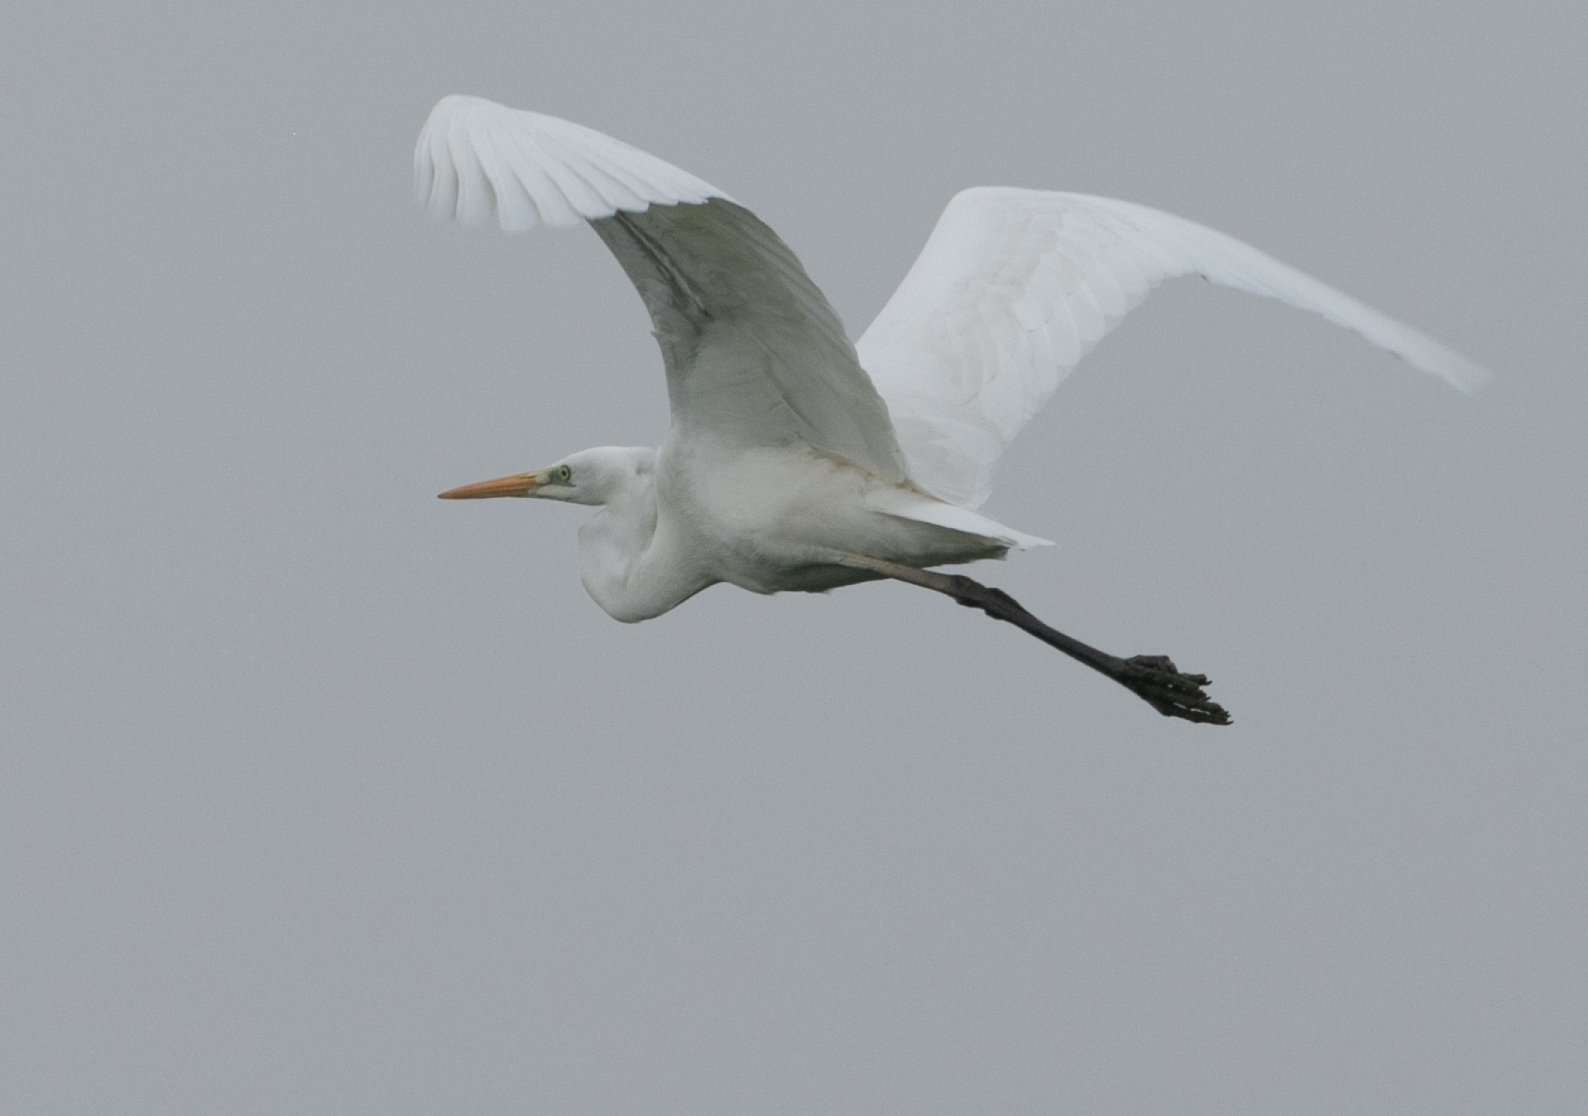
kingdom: Animalia
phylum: Chordata
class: Aves
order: Pelecaniformes
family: Ardeidae
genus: Ardea
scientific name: Ardea alba
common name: Great egret
